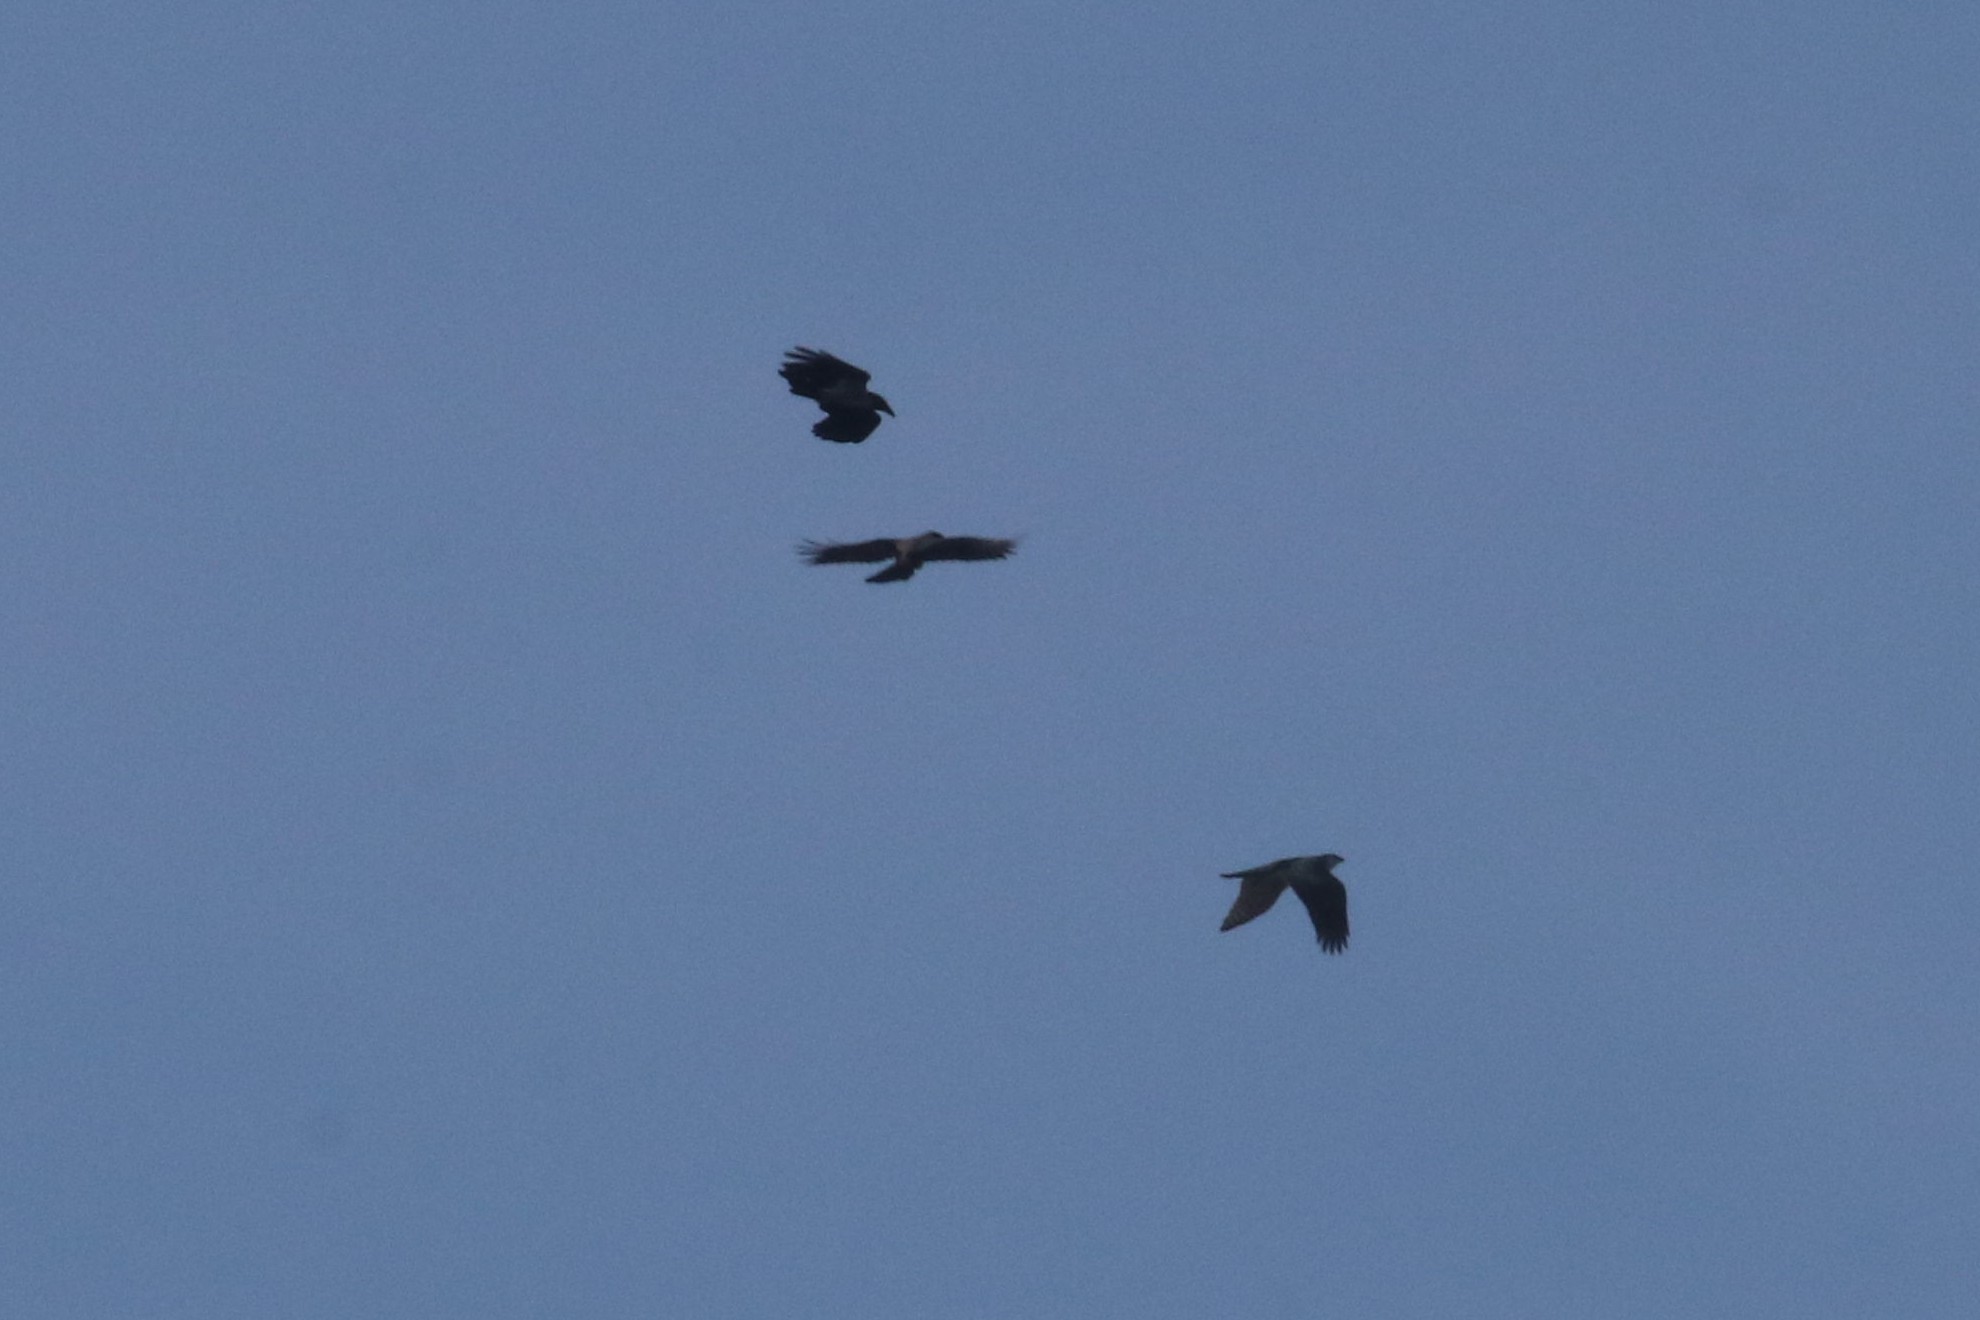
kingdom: Animalia
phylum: Chordata
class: Aves
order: Accipitriformes
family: Accipitridae
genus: Accipiter
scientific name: Accipiter gentilis
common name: Northern goshawk
